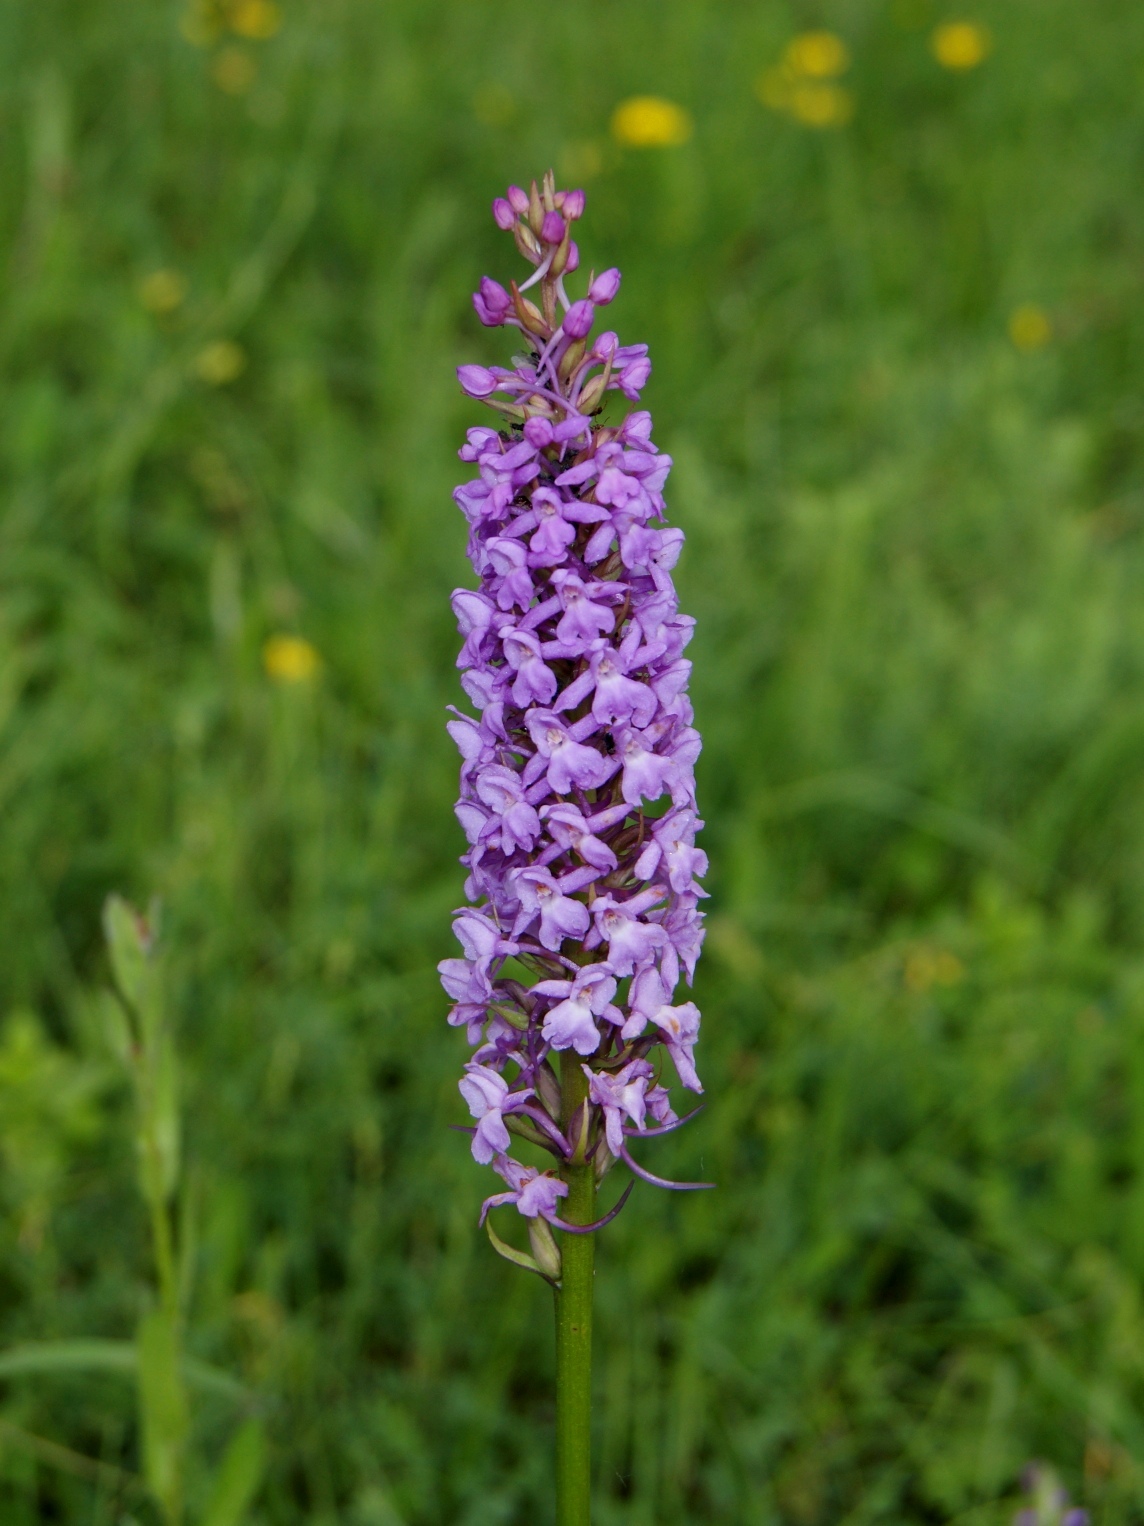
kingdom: Plantae
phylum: Tracheophyta
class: Liliopsida
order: Asparagales
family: Orchidaceae
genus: Gymnadenia
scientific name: Gymnadenia conopsea
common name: Fragrant orchid
